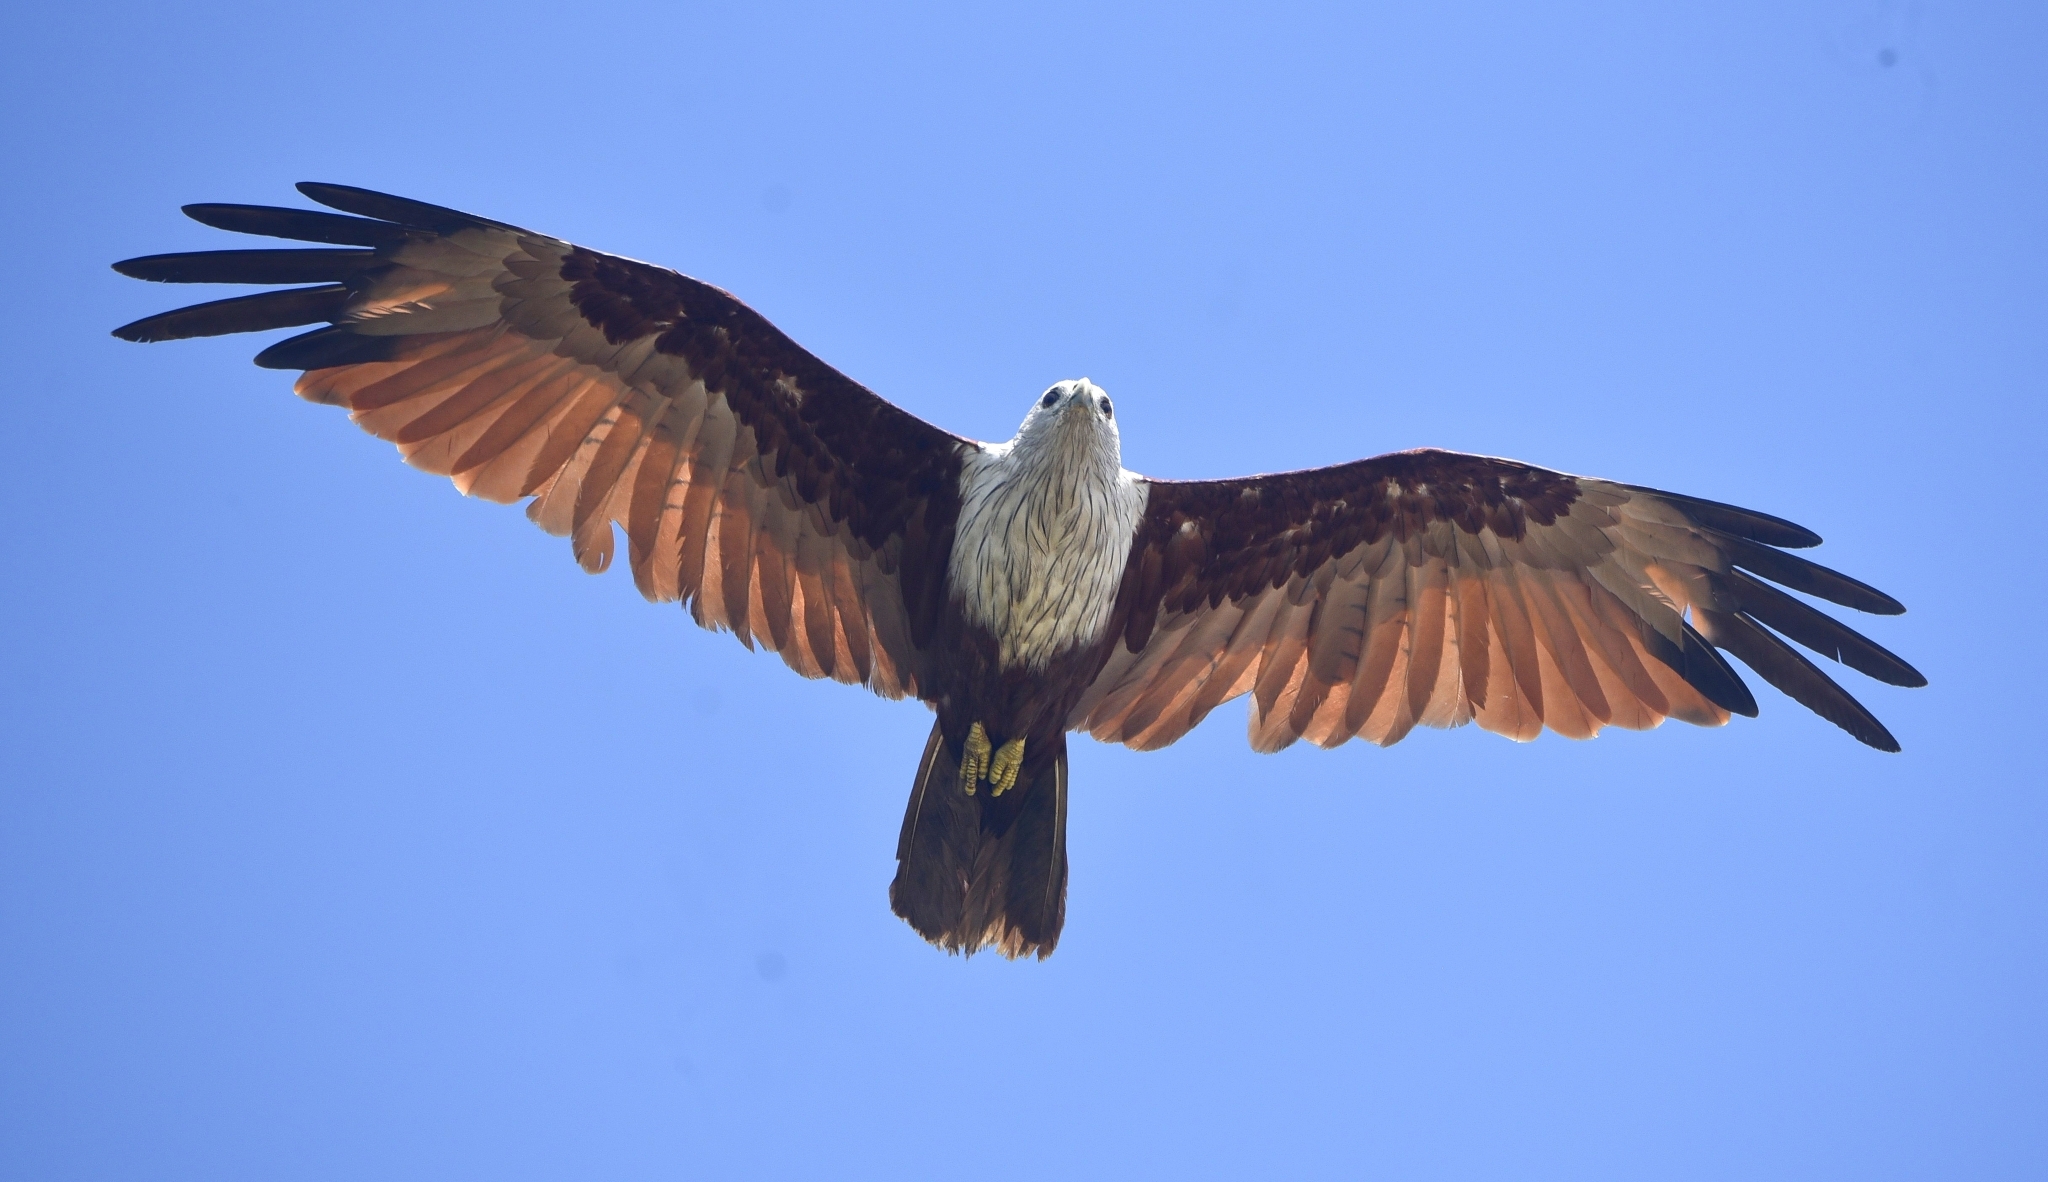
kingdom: Animalia
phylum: Chordata
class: Aves
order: Accipitriformes
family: Accipitridae
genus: Haliastur
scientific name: Haliastur indus
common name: Brahminy kite
